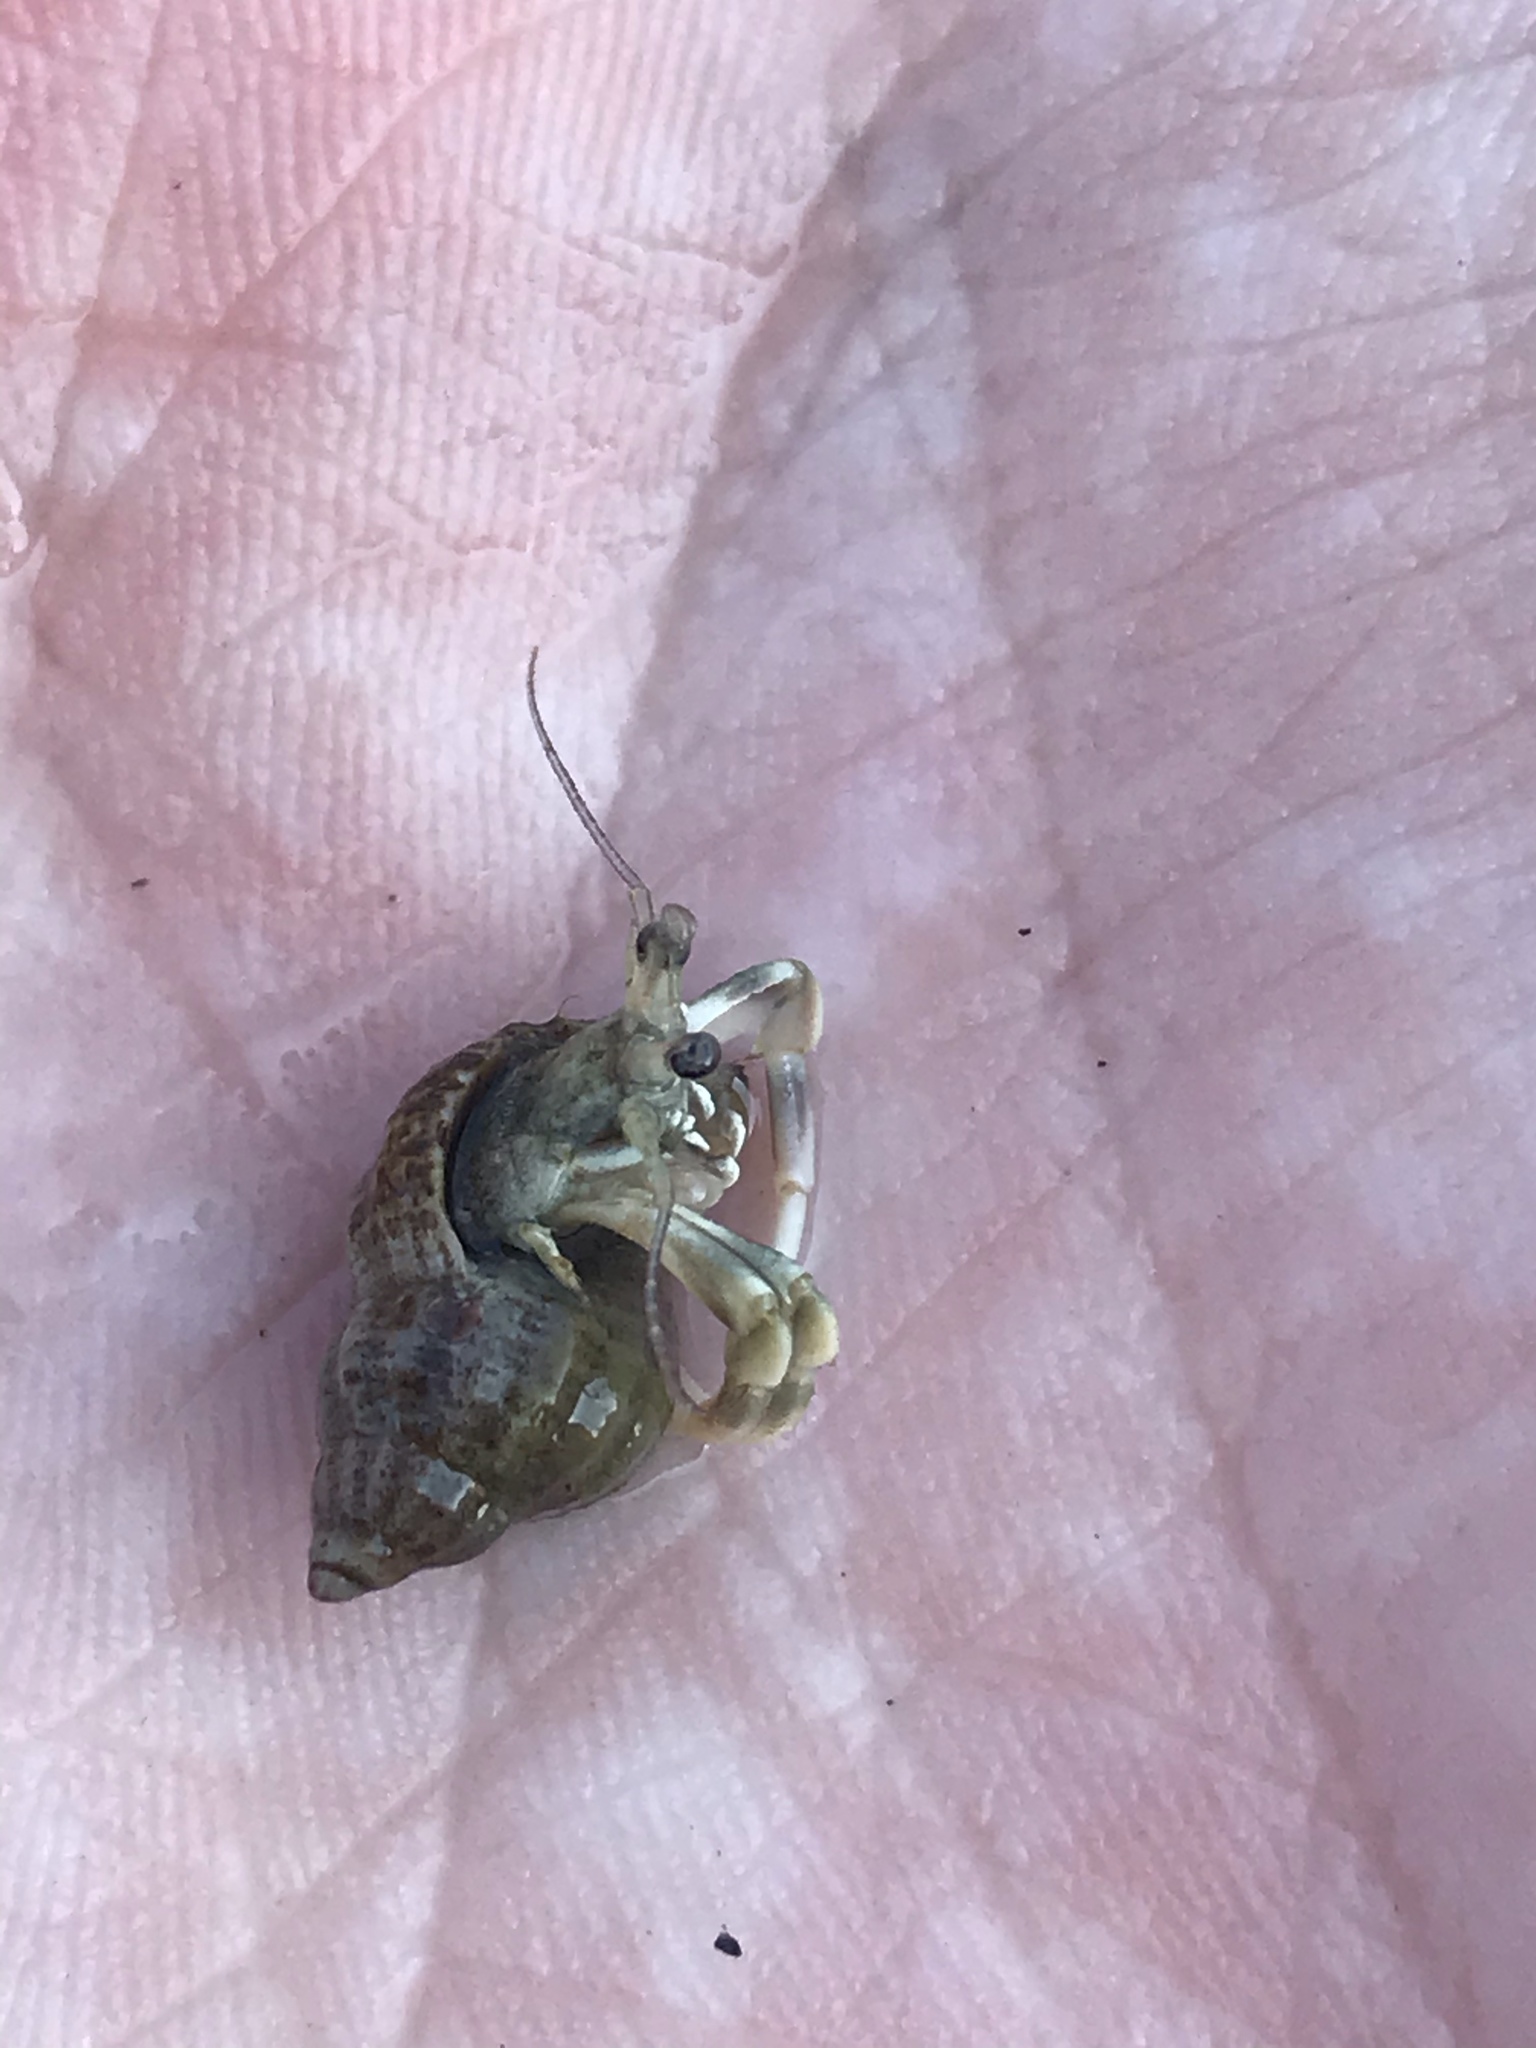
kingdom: Animalia
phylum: Arthropoda
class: Malacostraca
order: Decapoda
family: Paguridae
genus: Pagurus
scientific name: Pagurus longicarpus
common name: Long-armed hermit crab
